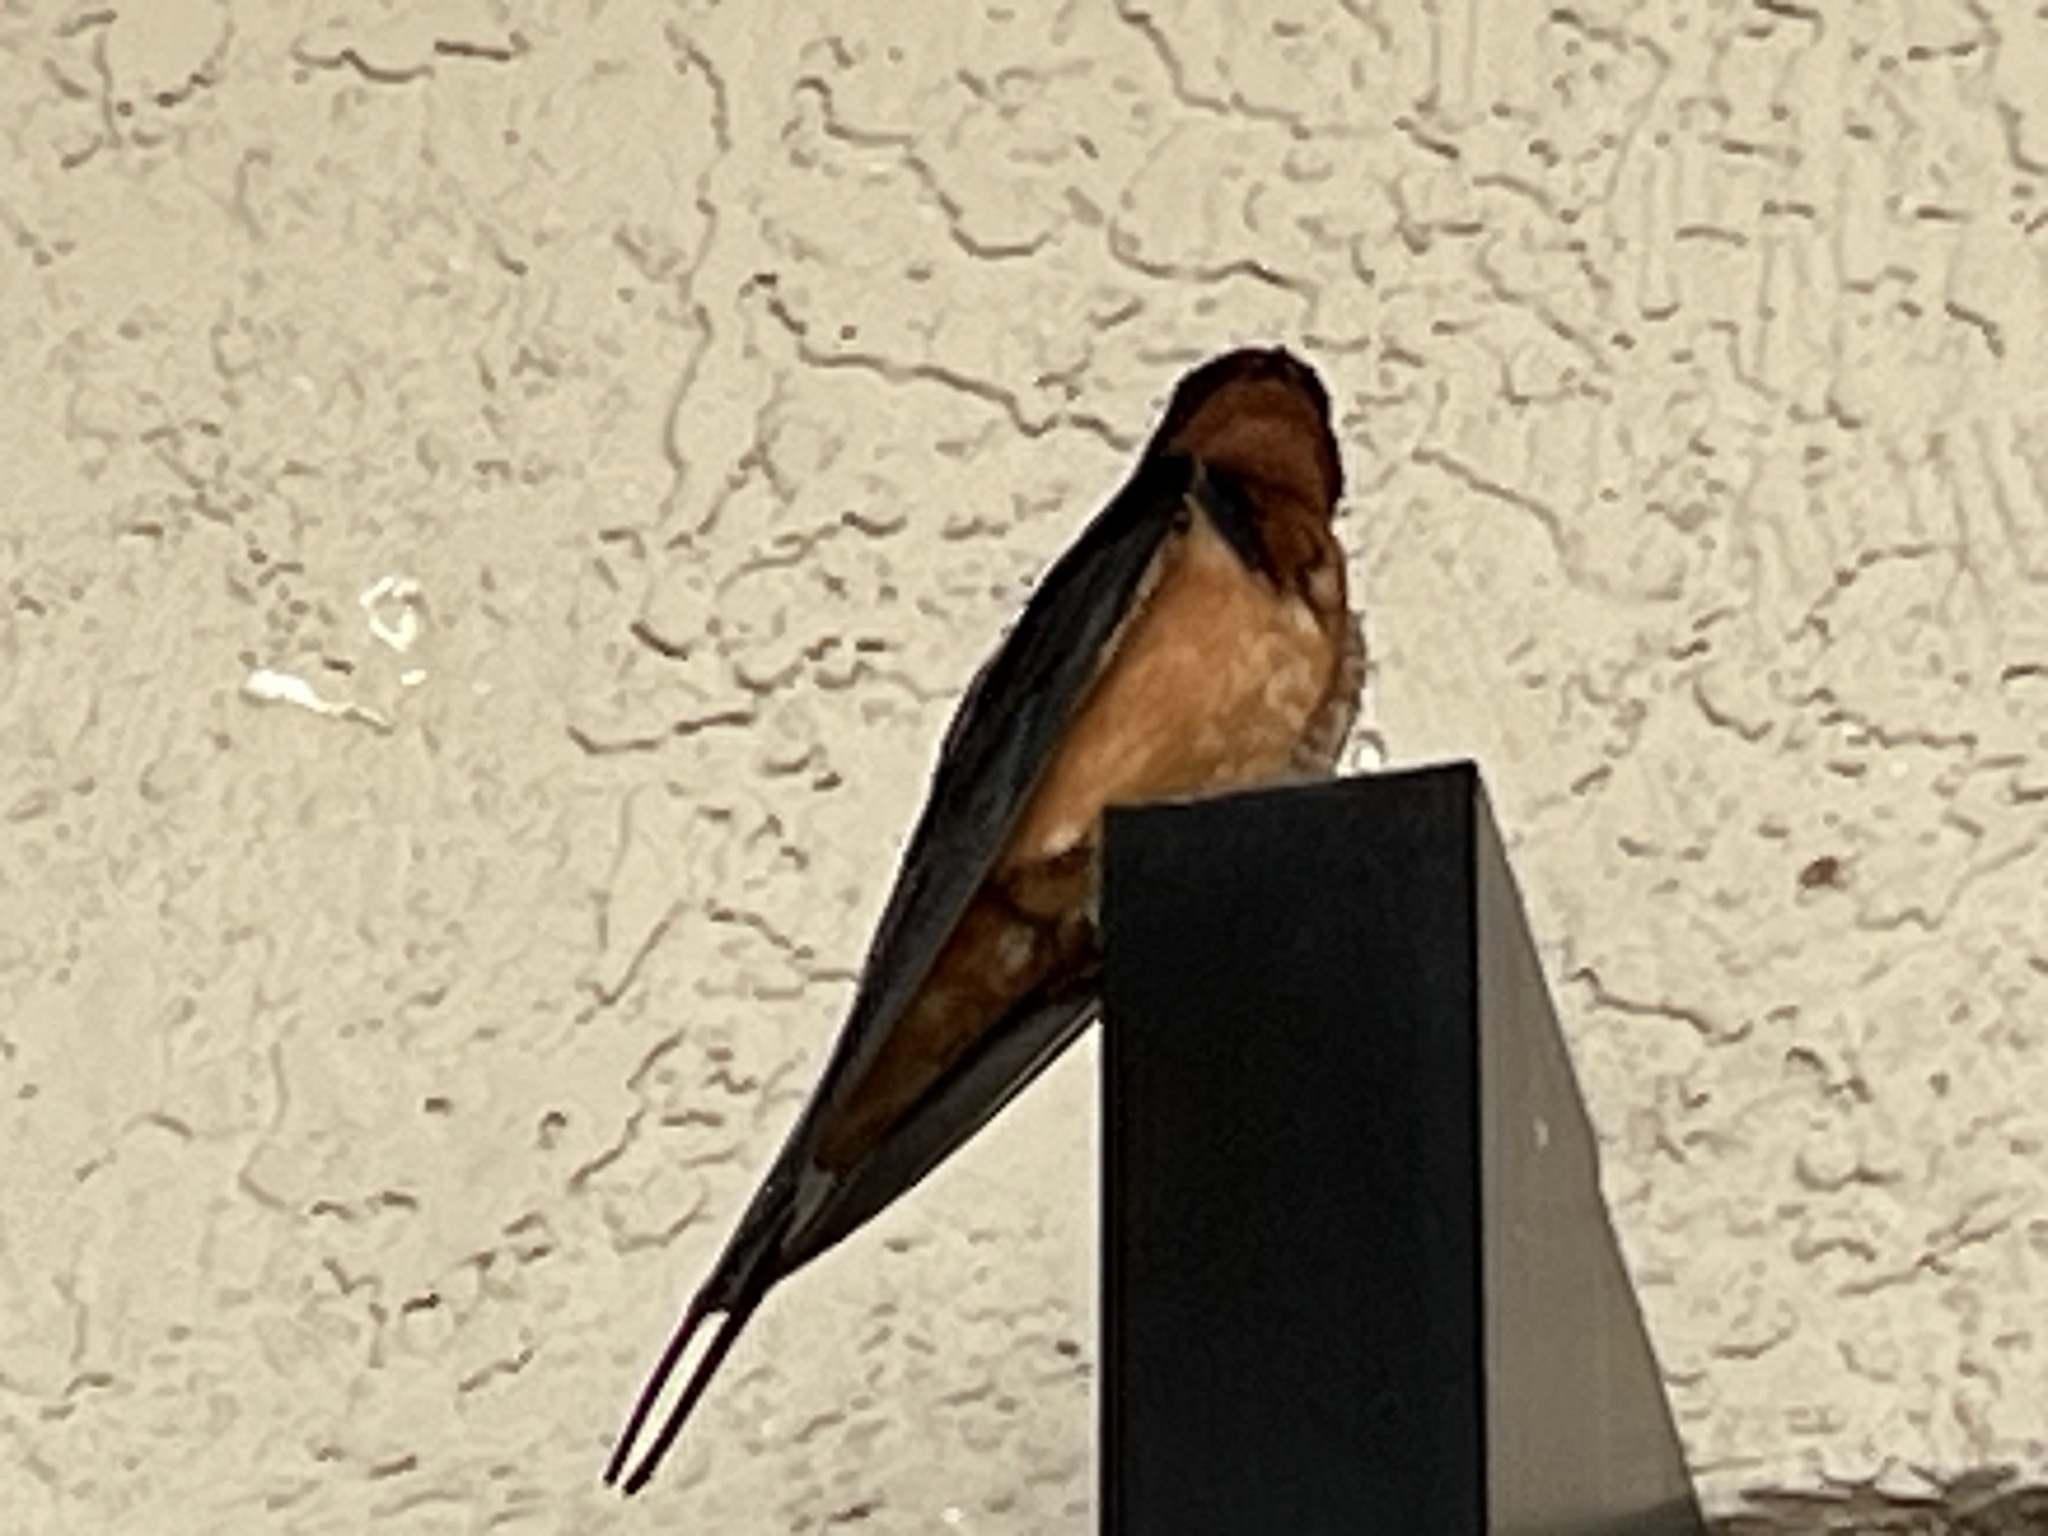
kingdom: Animalia
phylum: Chordata
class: Aves
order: Passeriformes
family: Hirundinidae
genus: Hirundo
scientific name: Hirundo rustica
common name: Barn swallow
